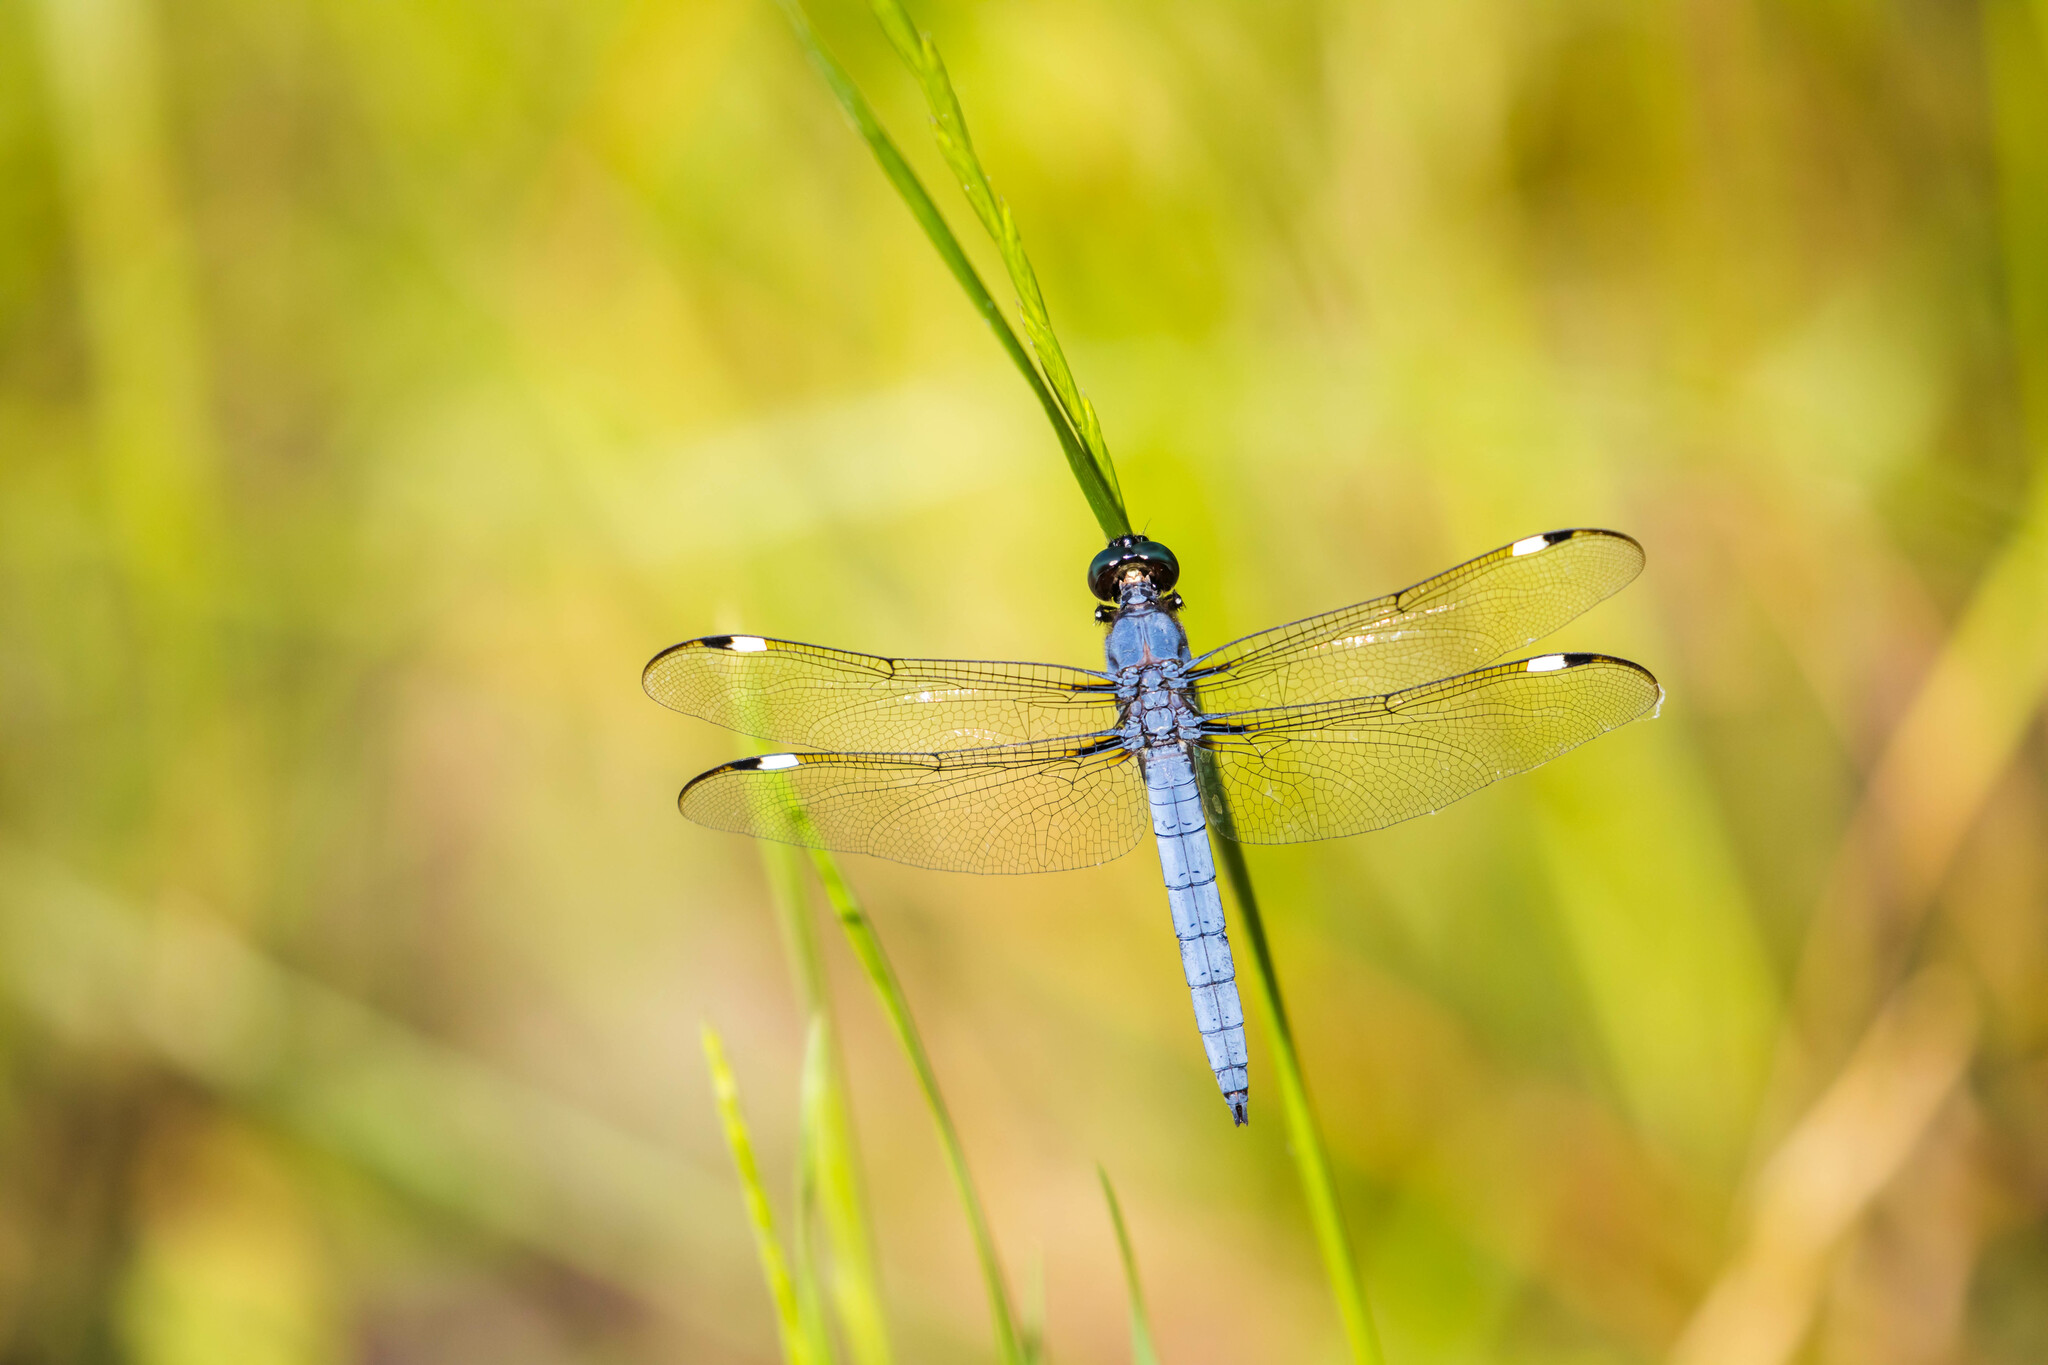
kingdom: Animalia
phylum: Arthropoda
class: Insecta
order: Odonata
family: Libellulidae
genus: Libellula
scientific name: Libellula cyanea
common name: Spangled skimmer
